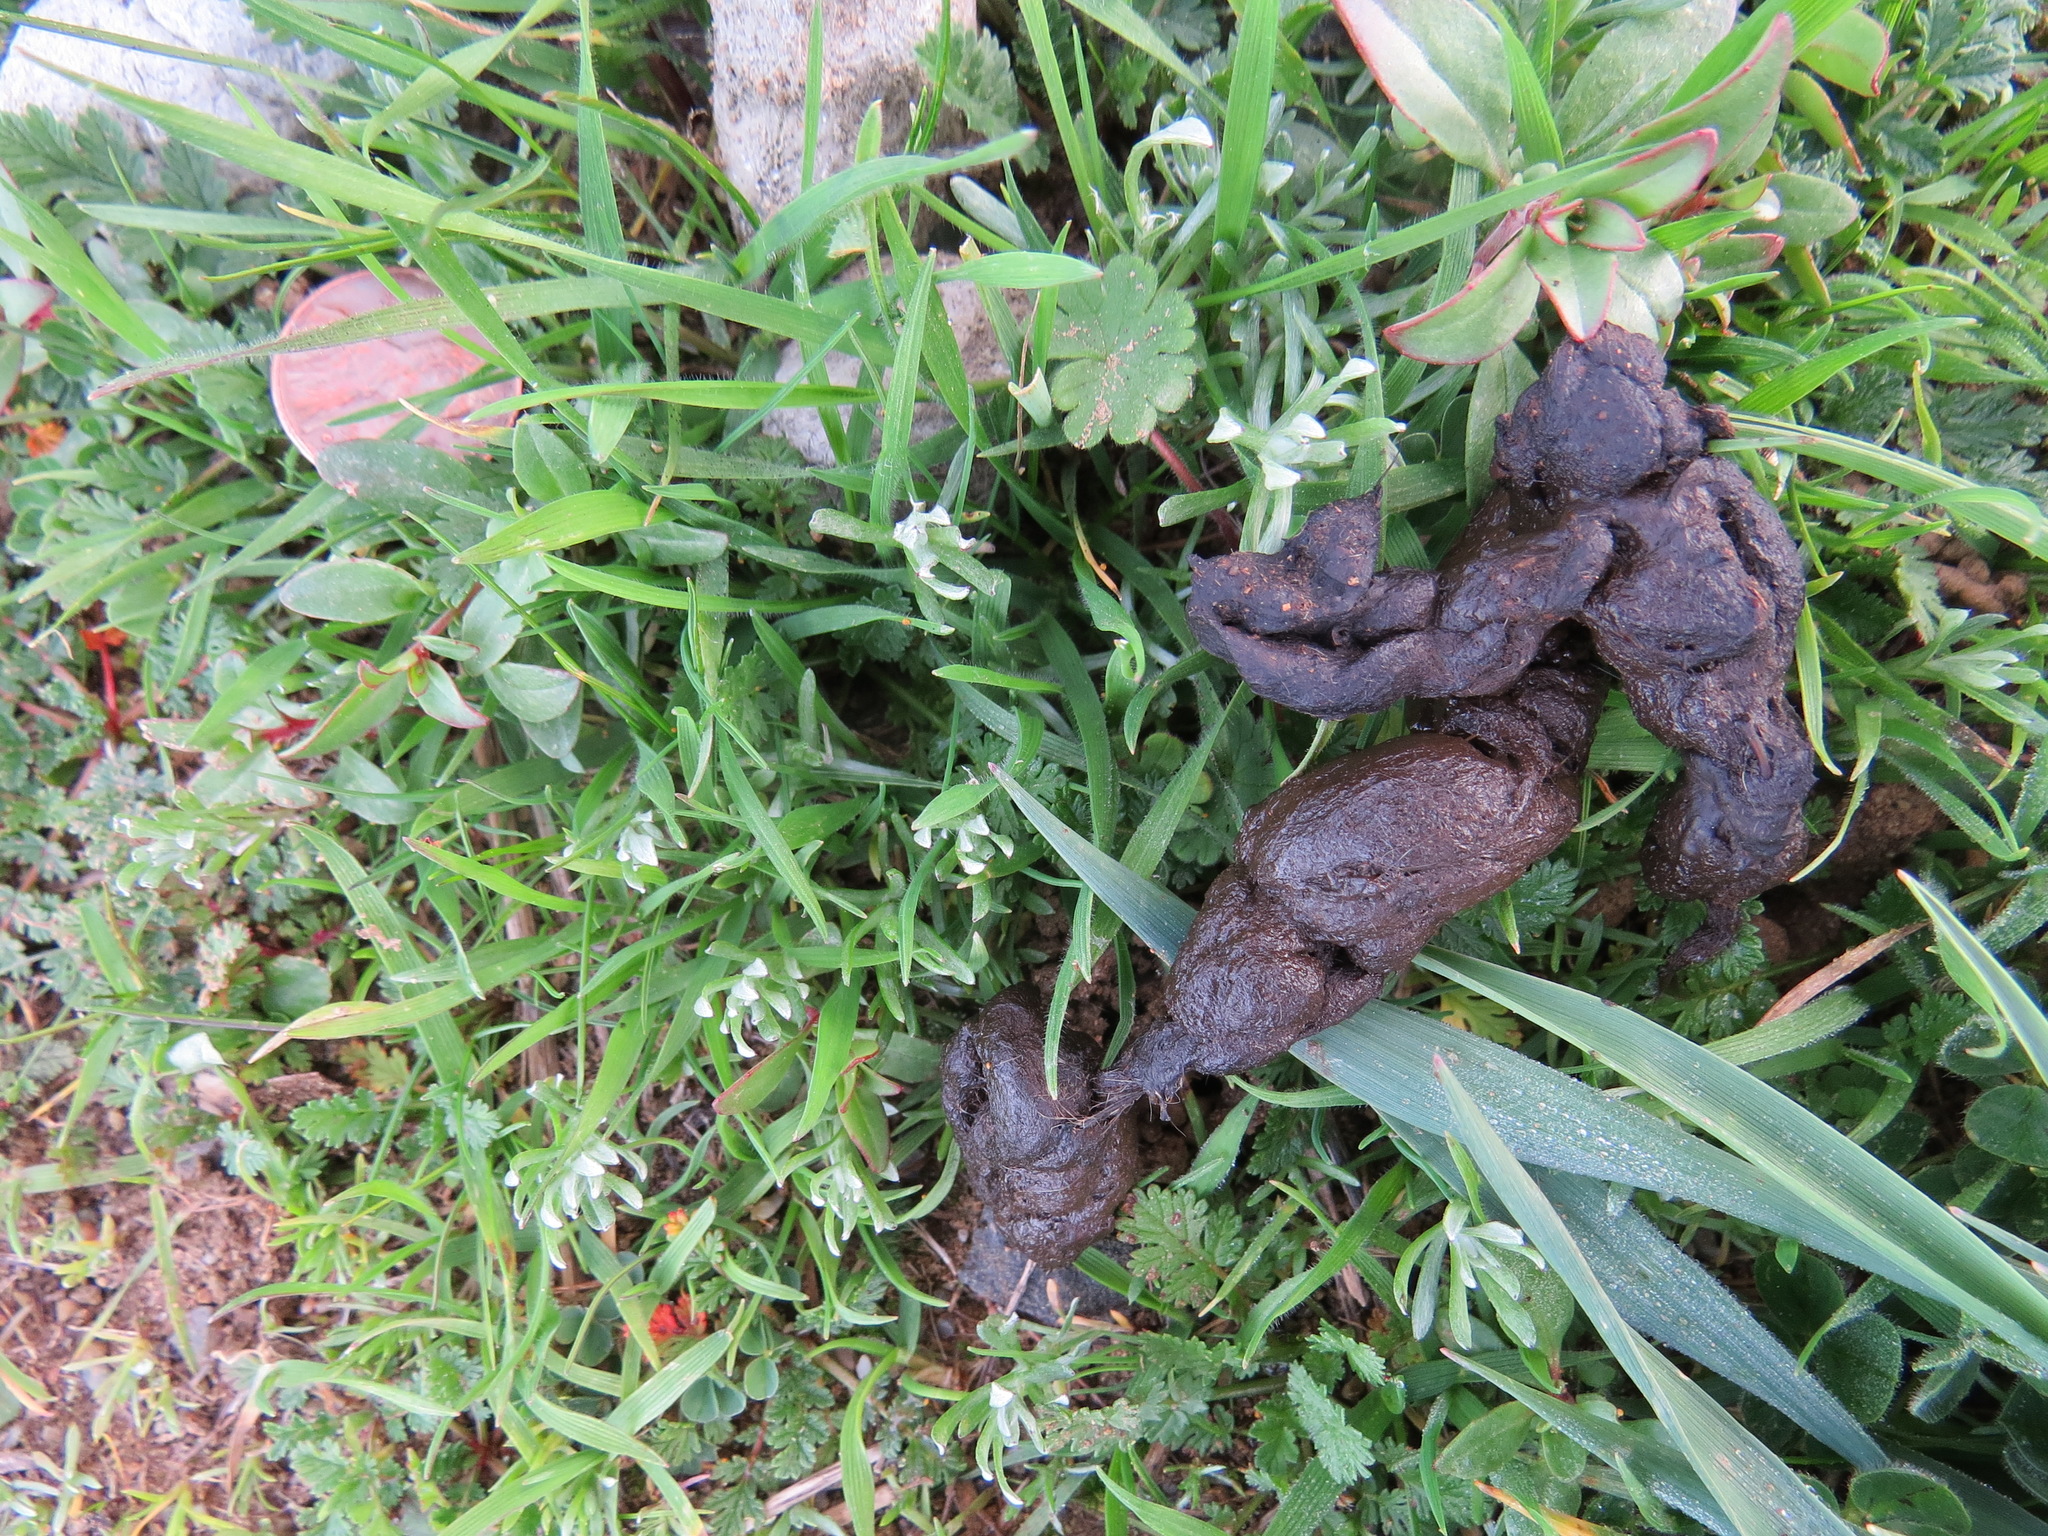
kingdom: Animalia
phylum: Chordata
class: Mammalia
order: Carnivora
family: Canidae
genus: Urocyon
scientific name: Urocyon cinereoargenteus
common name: Gray fox
